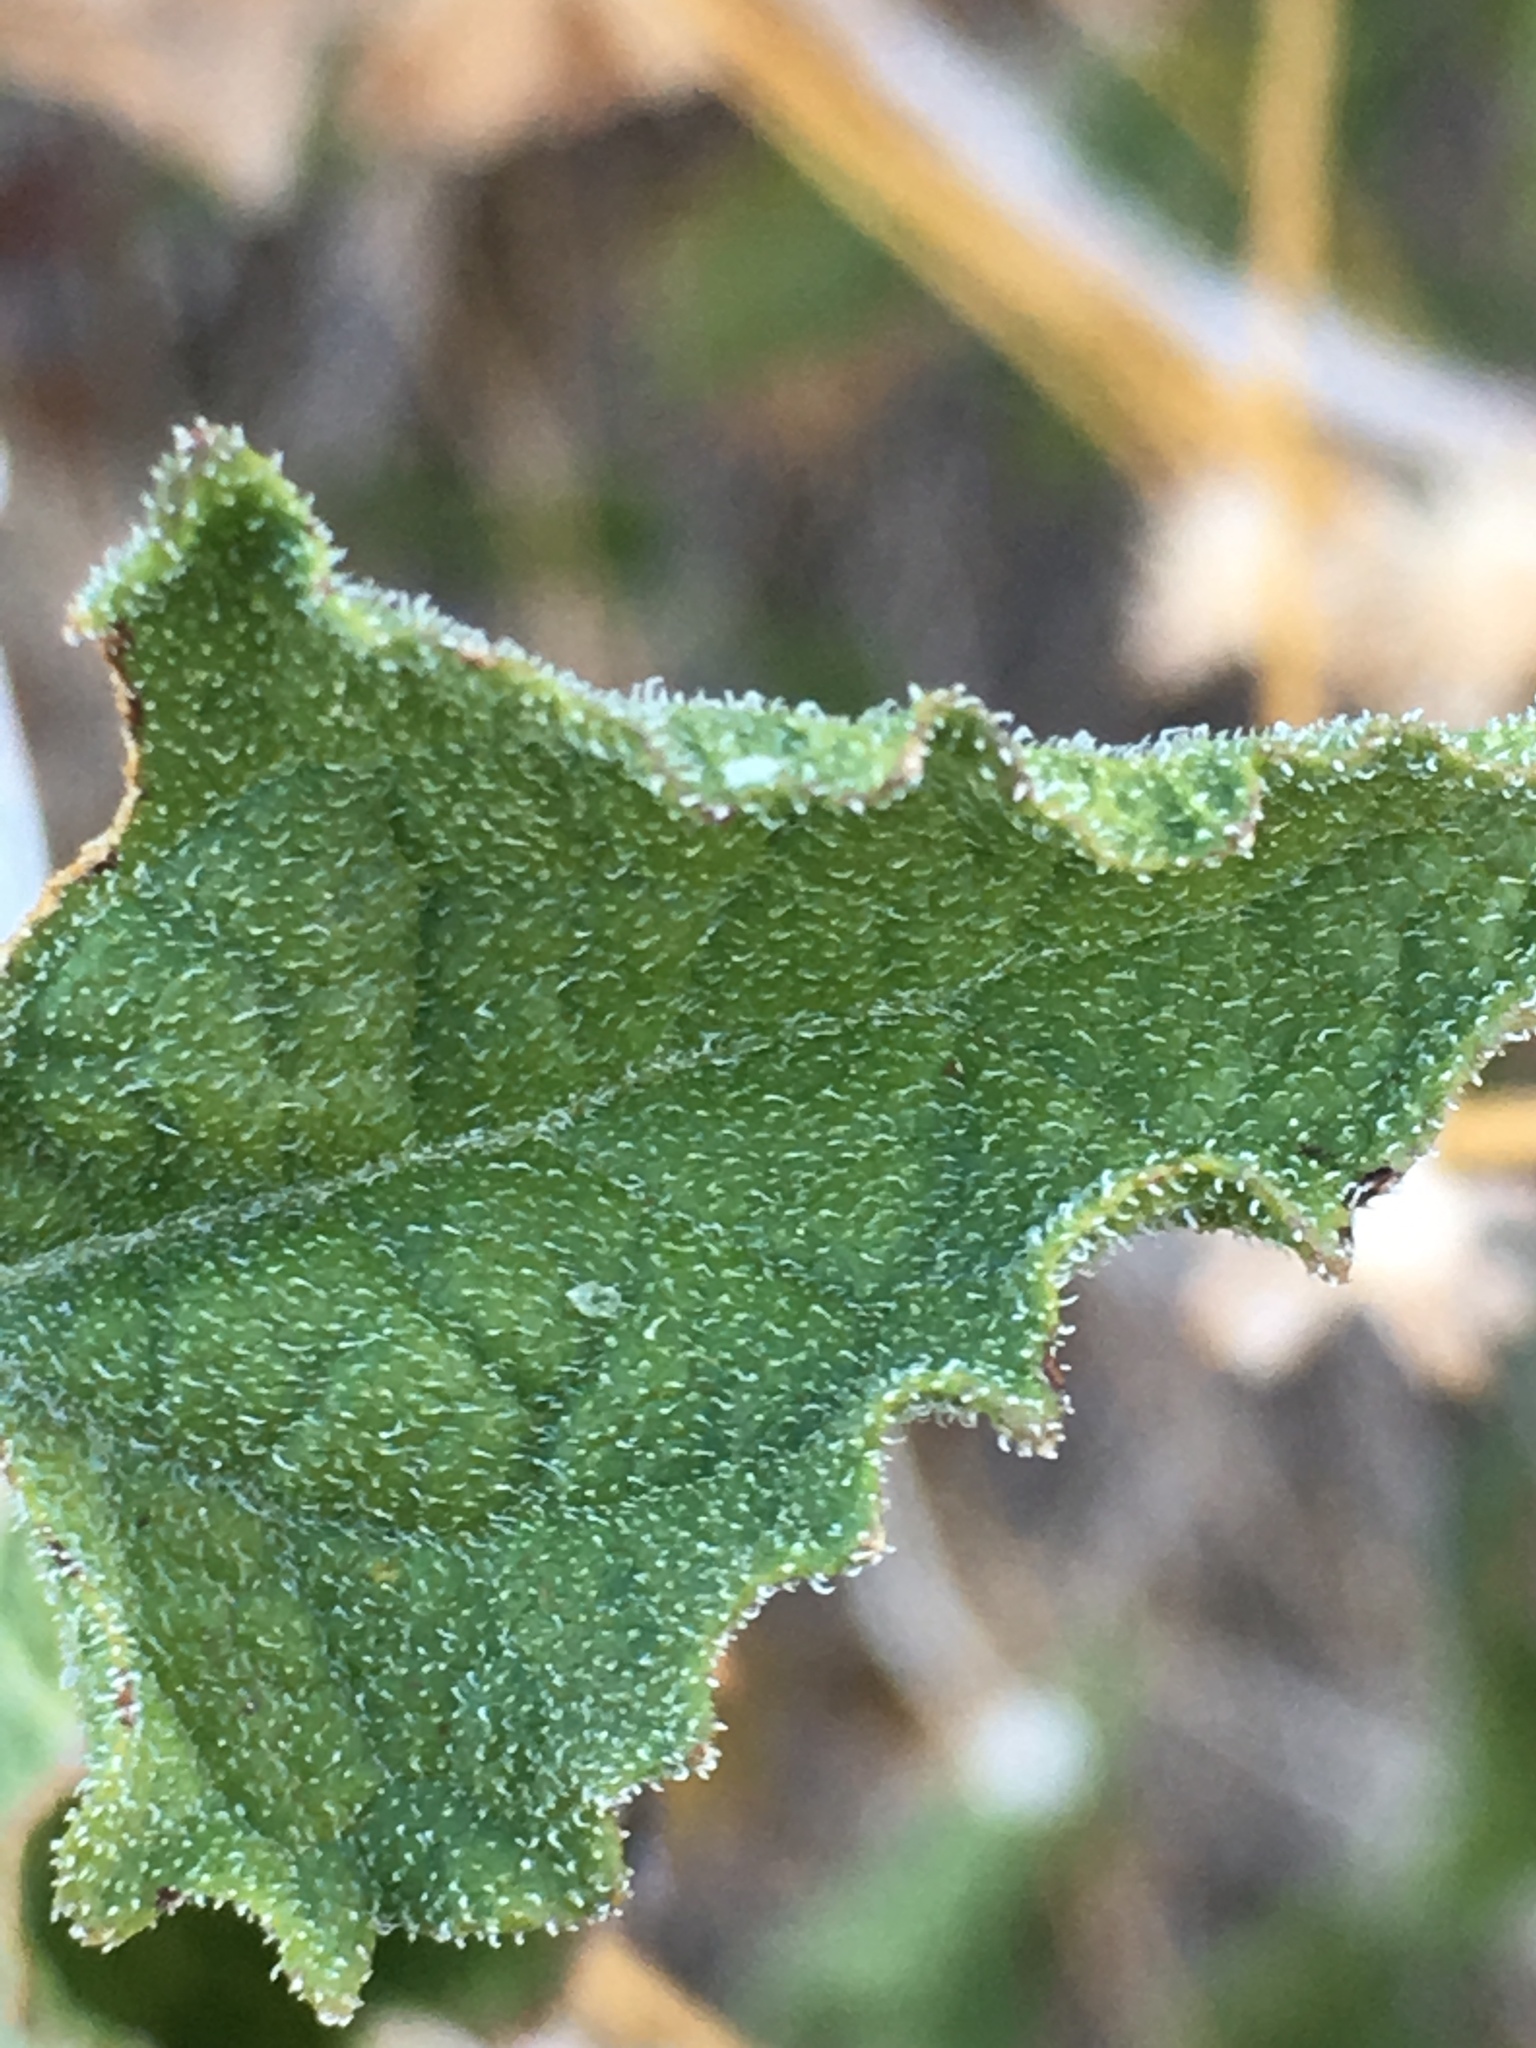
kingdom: Plantae
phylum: Tracheophyta
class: Magnoliopsida
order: Asterales
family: Asteraceae
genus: Bahiopsis
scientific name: Bahiopsis parishii
